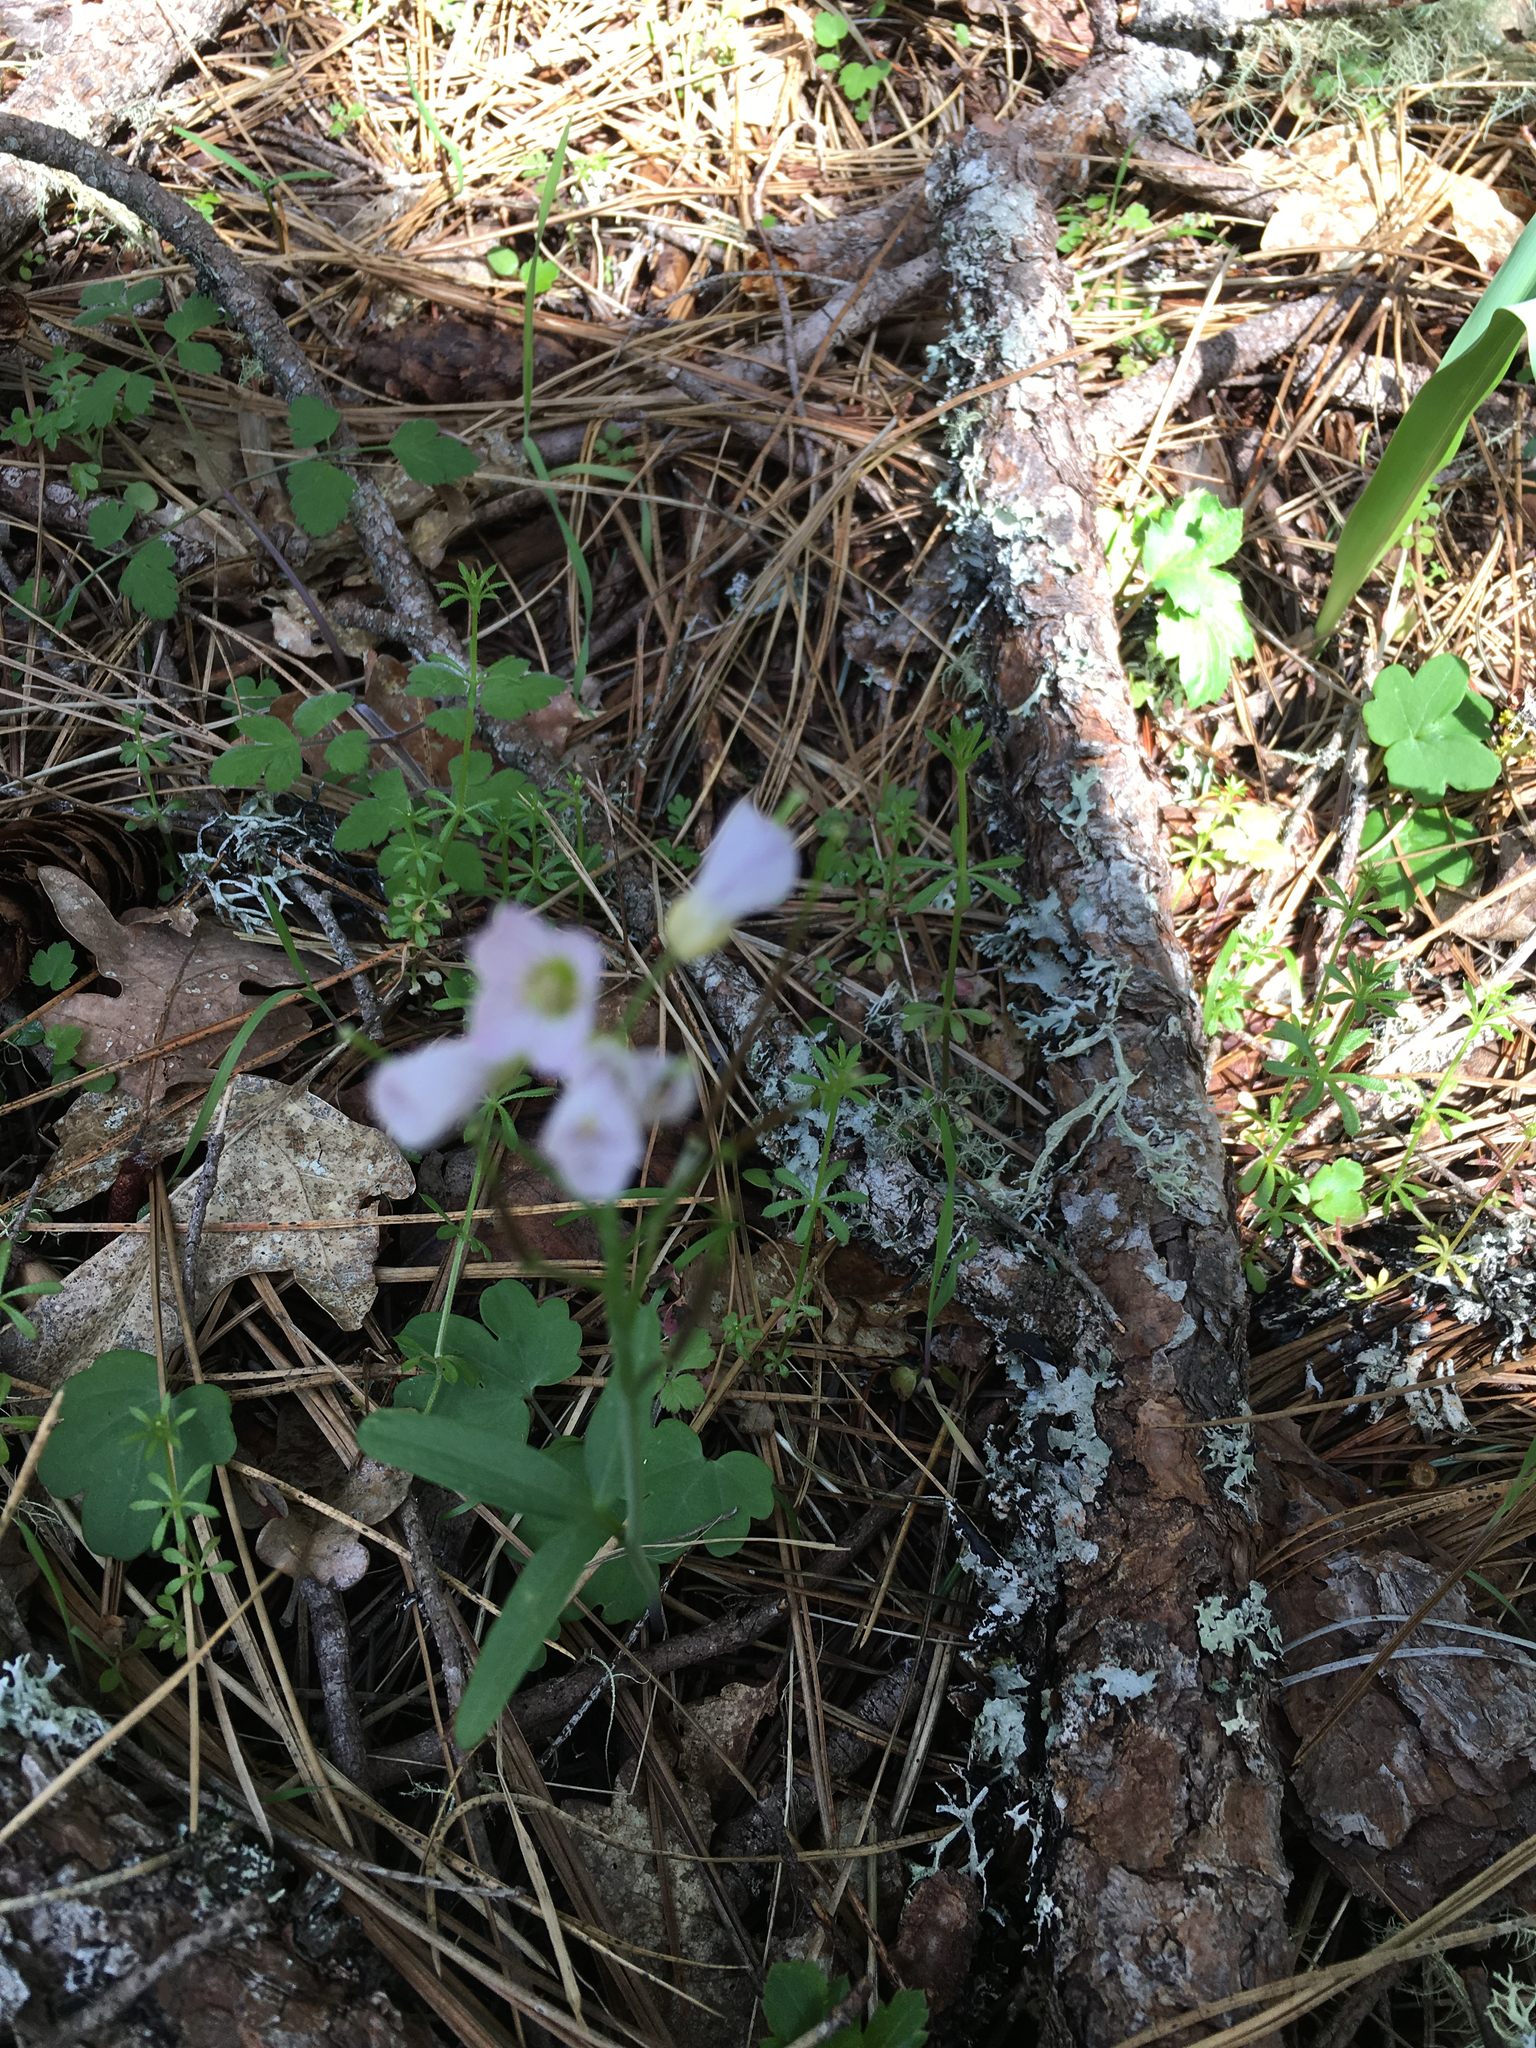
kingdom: Plantae
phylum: Tracheophyta
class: Magnoliopsida
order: Brassicales
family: Brassicaceae
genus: Cardamine
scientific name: Cardamine nuttallii
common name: Nuttall's toothwort
